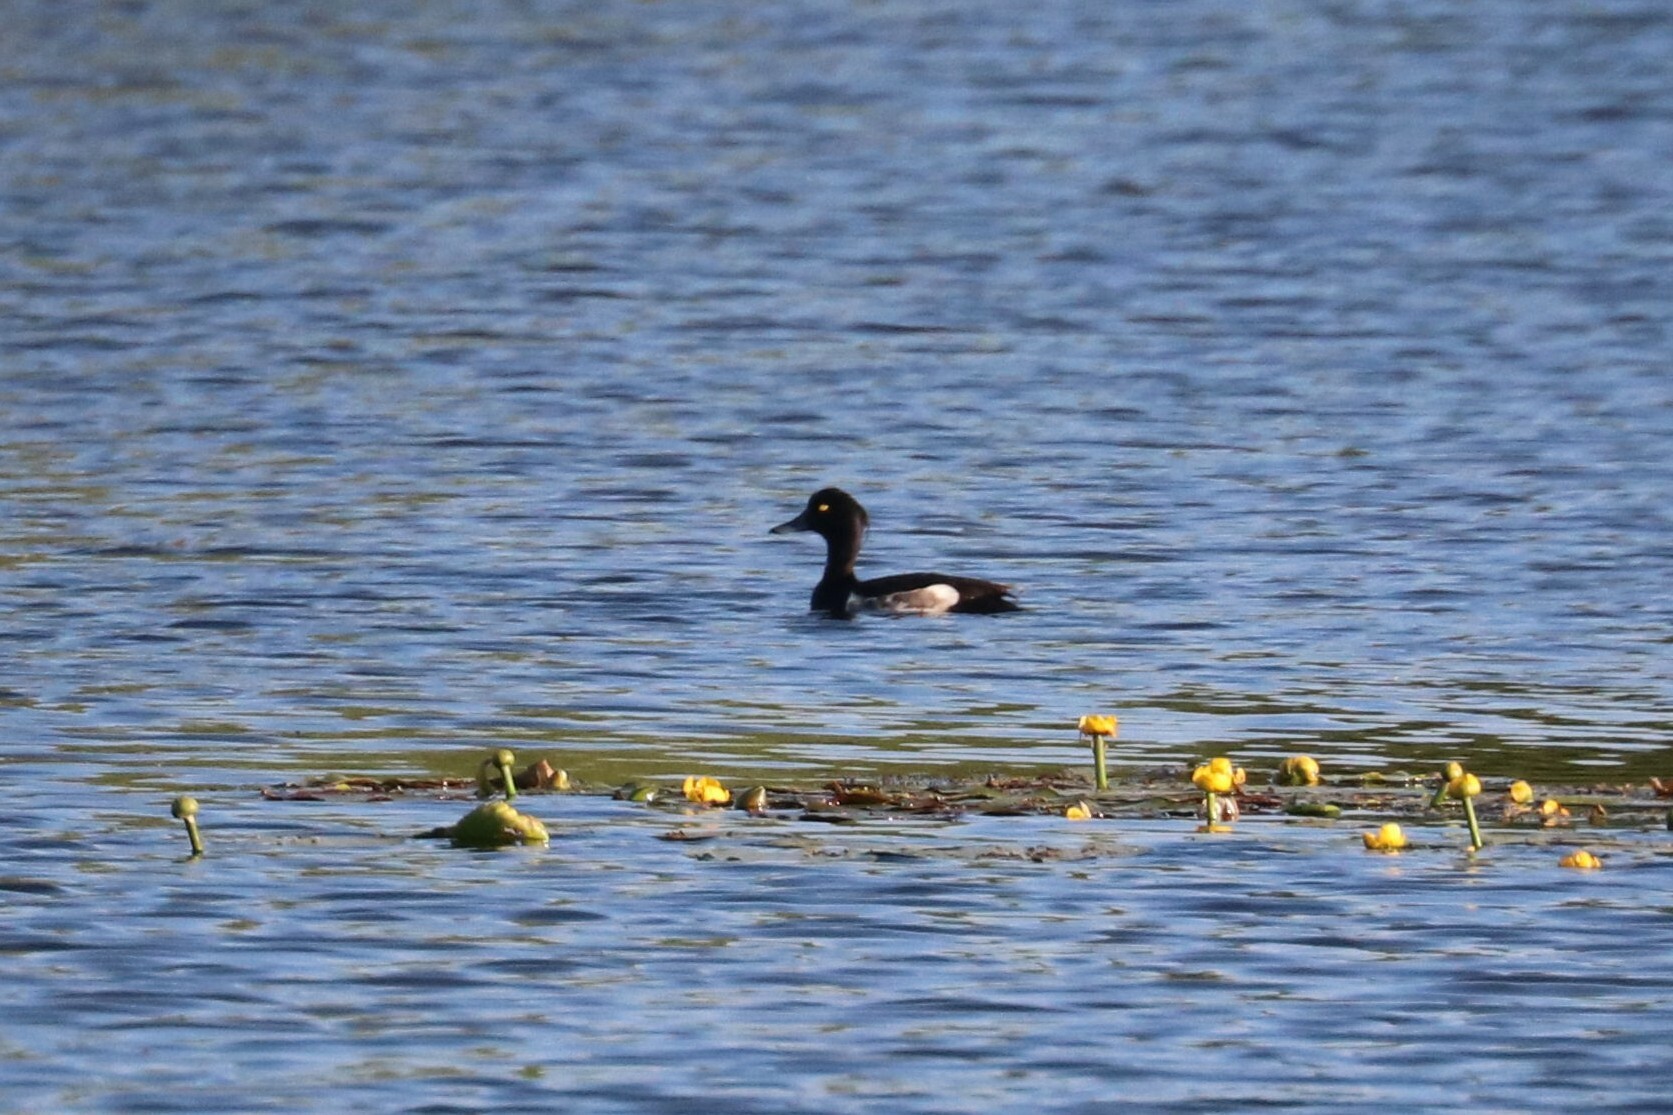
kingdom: Animalia
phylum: Chordata
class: Aves
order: Anseriformes
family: Anatidae
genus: Aythya
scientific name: Aythya fuligula
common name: Tufted duck
